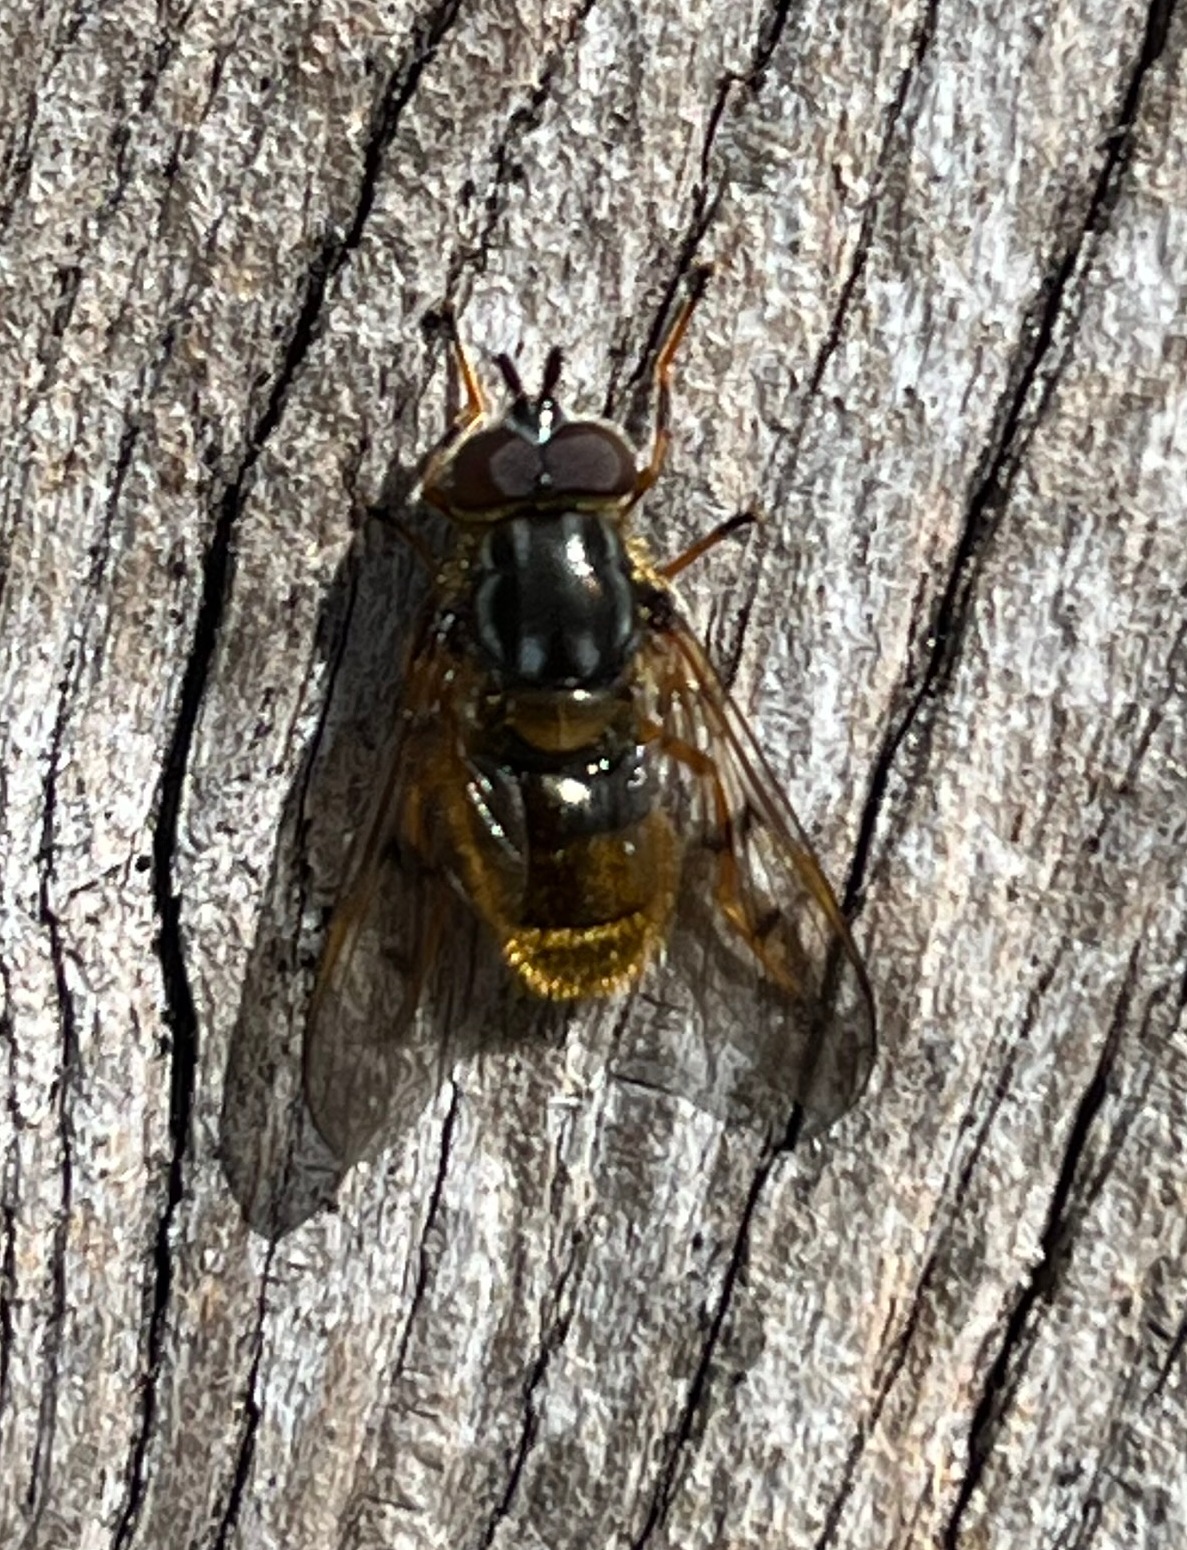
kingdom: Animalia
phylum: Arthropoda
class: Insecta
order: Diptera
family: Syrphidae
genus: Ferdinandea
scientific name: Ferdinandea cuprea
